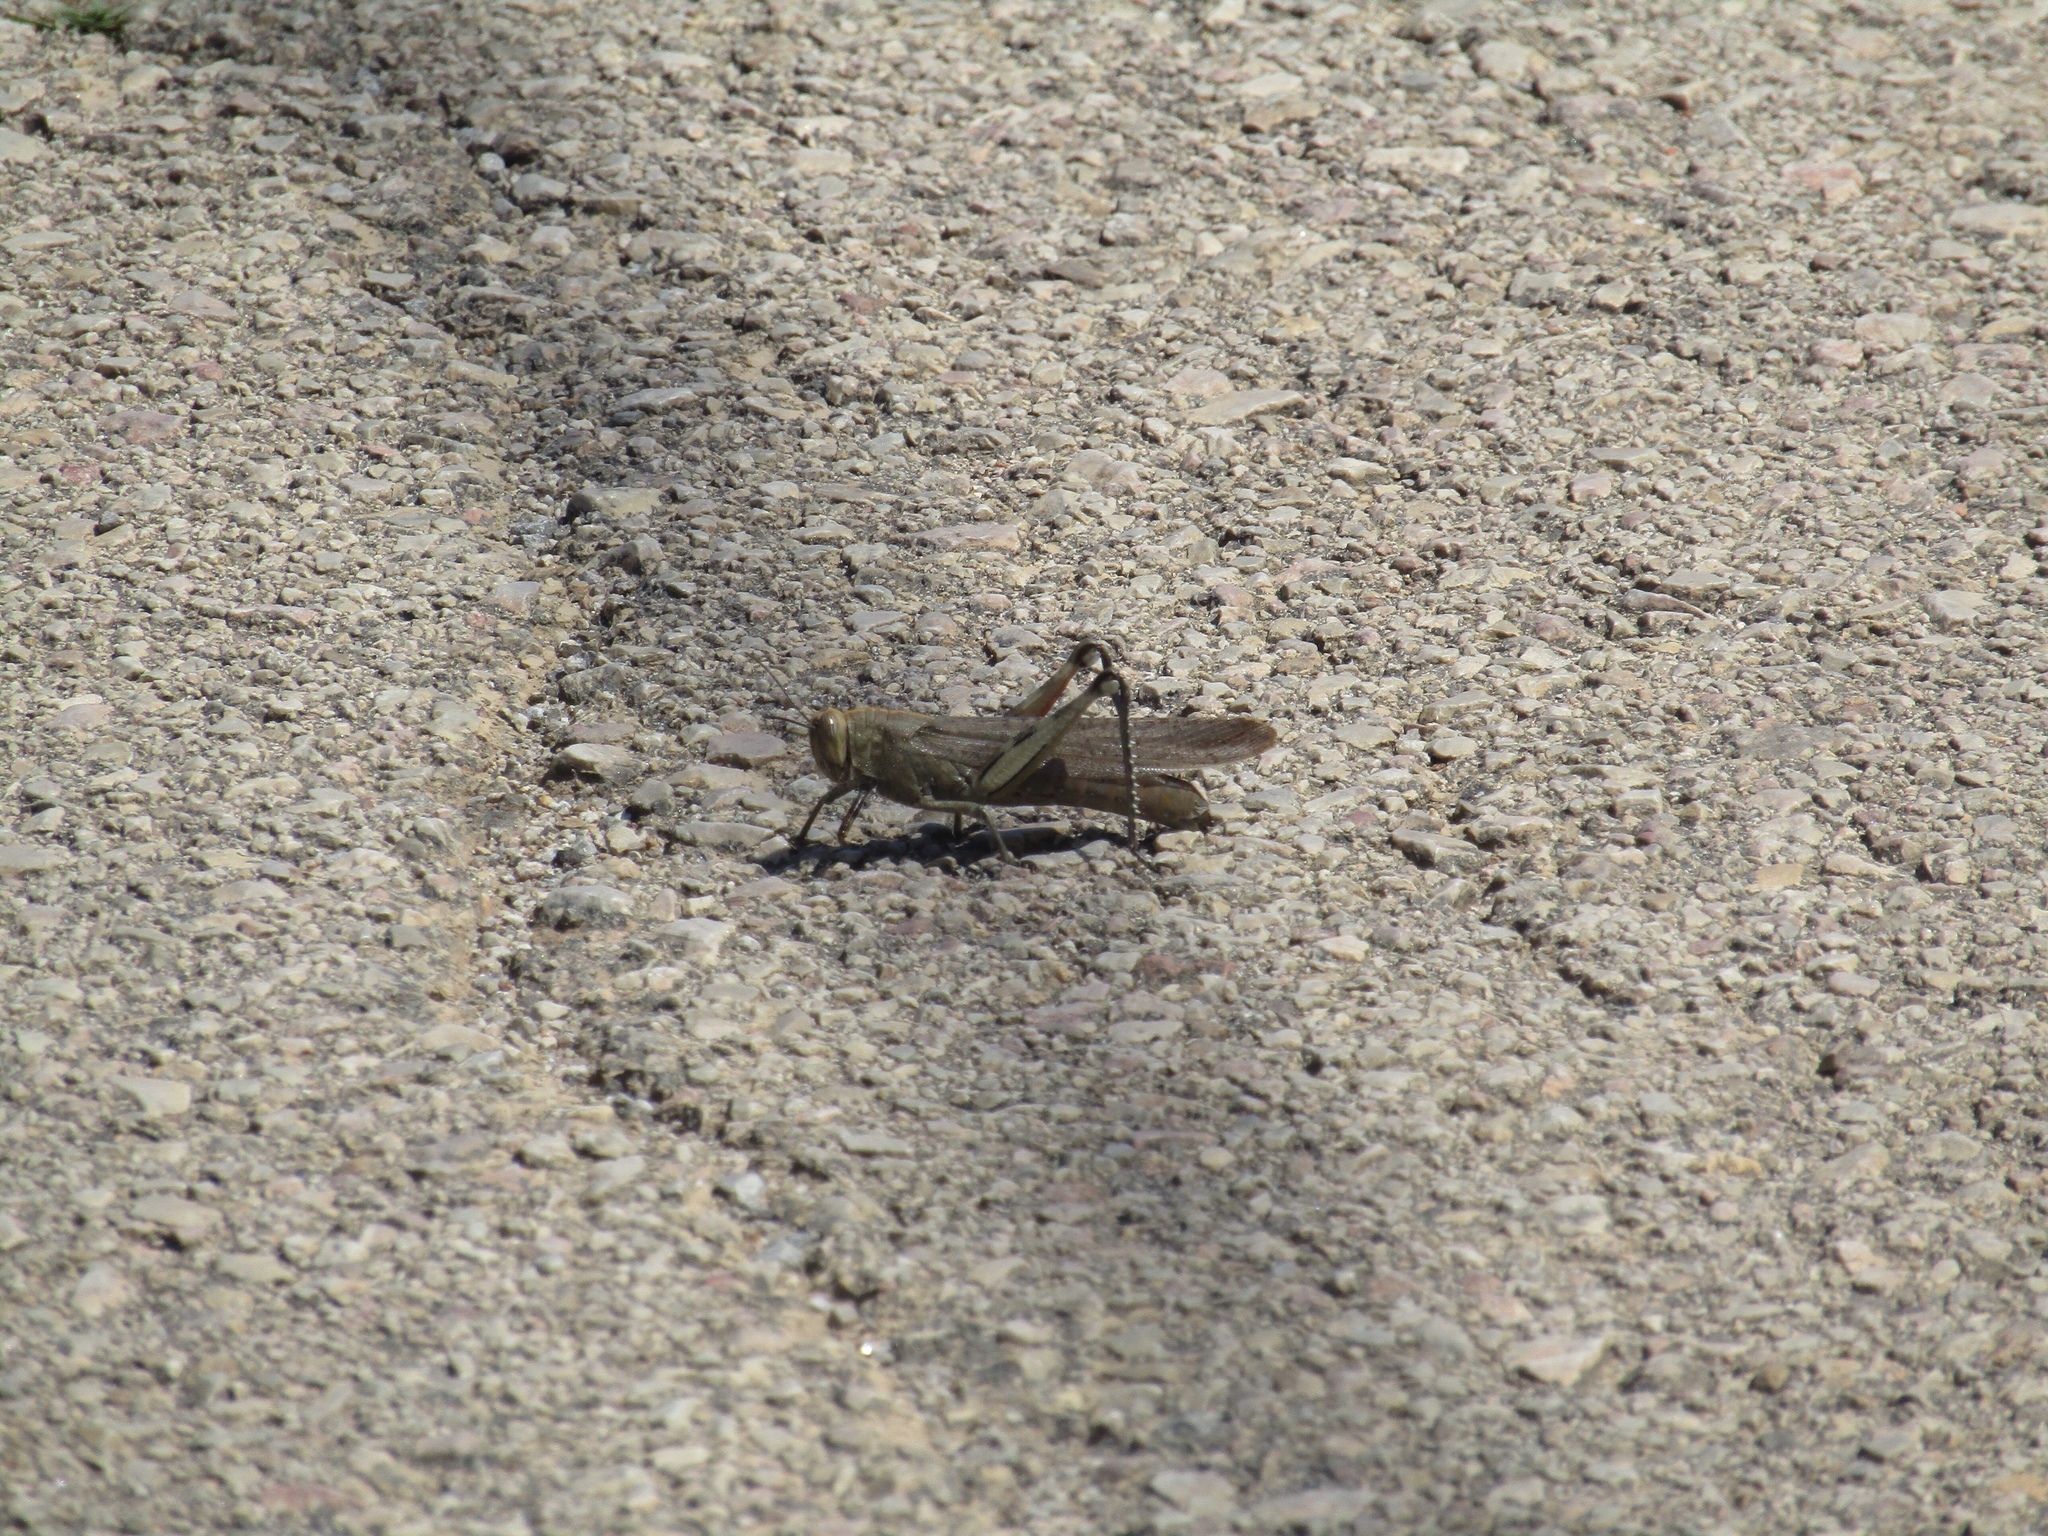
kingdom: Animalia
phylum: Arthropoda
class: Insecta
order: Orthoptera
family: Acrididae
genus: Anacridium
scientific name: Anacridium aegyptium
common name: Egyptian grasshopper
